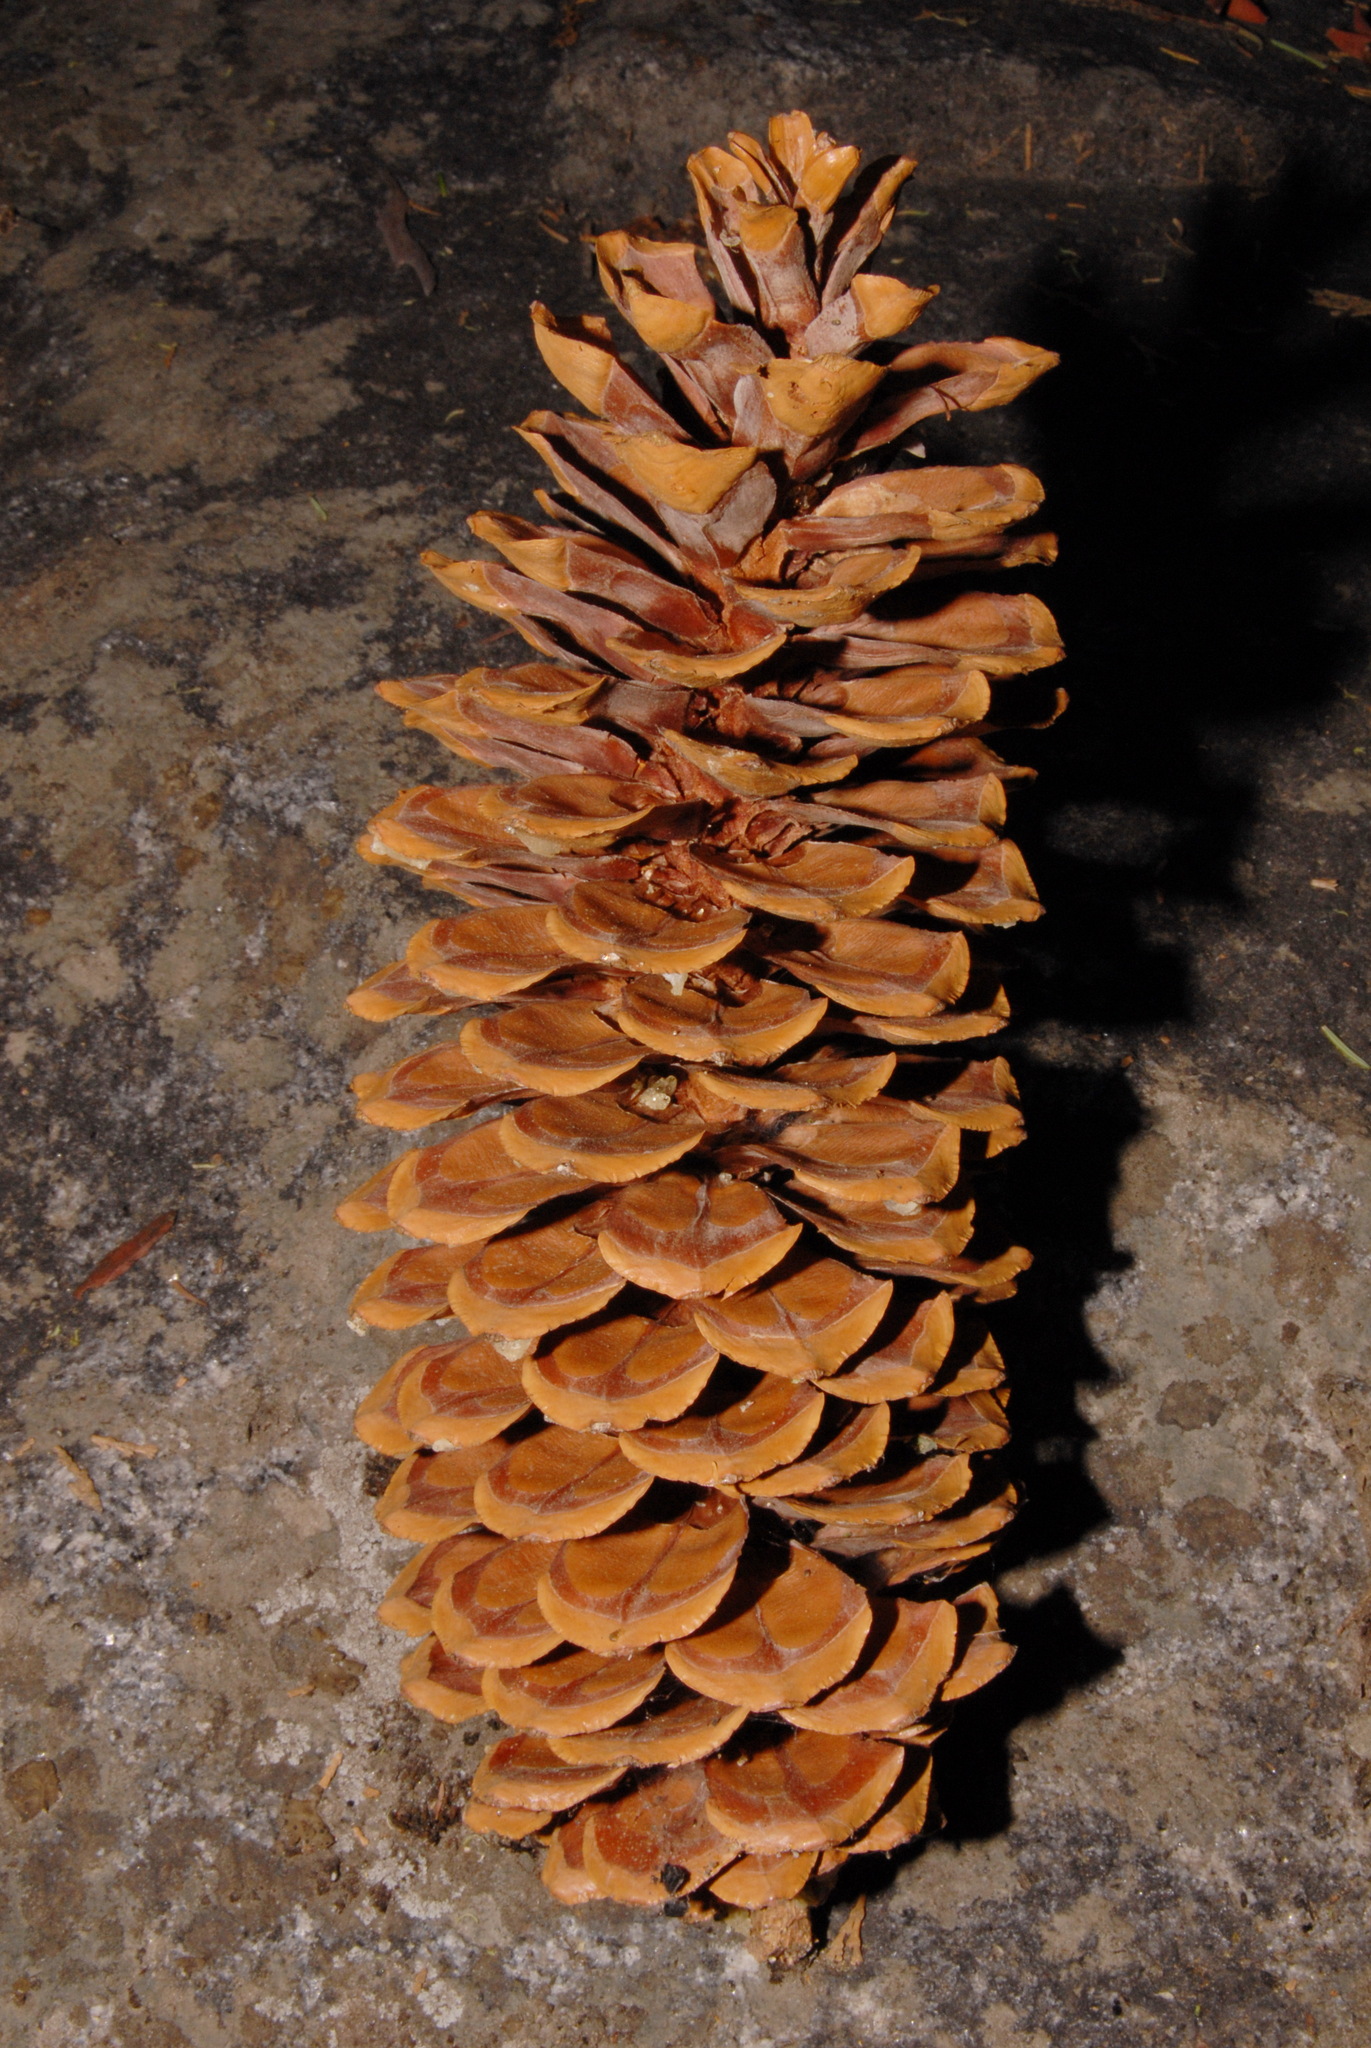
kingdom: Plantae
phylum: Tracheophyta
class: Pinopsida
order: Pinales
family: Pinaceae
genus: Pinus
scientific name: Pinus lambertiana
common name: Sugar pine
